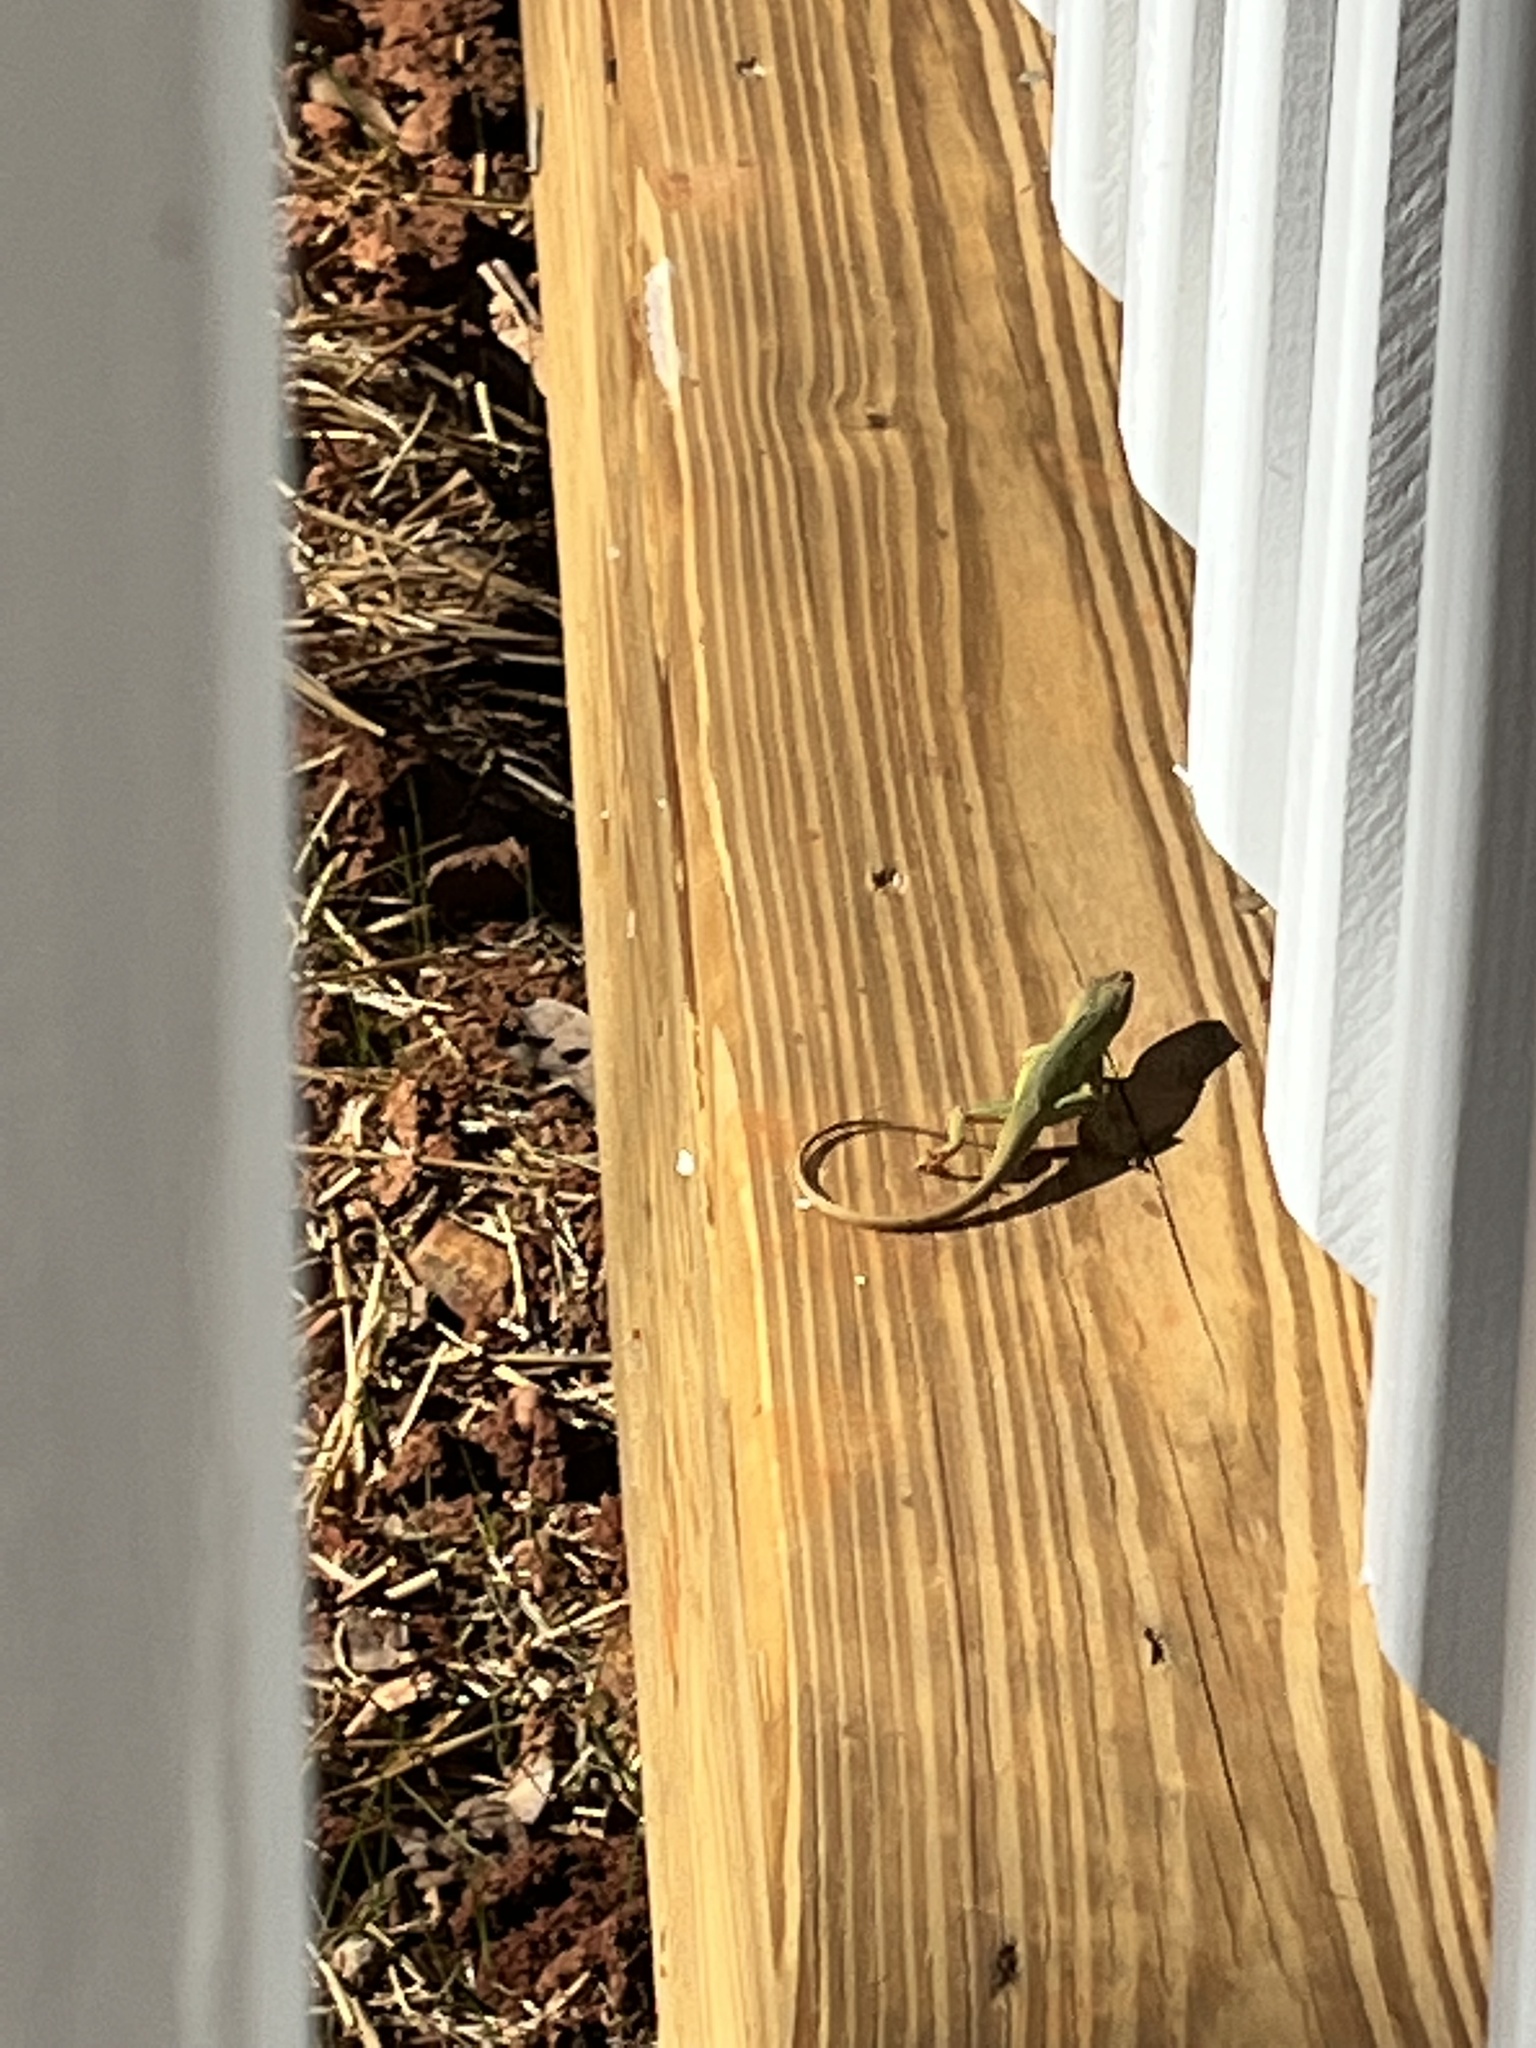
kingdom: Animalia
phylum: Chordata
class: Squamata
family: Dactyloidae
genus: Anolis
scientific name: Anolis carolinensis
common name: Green anole
